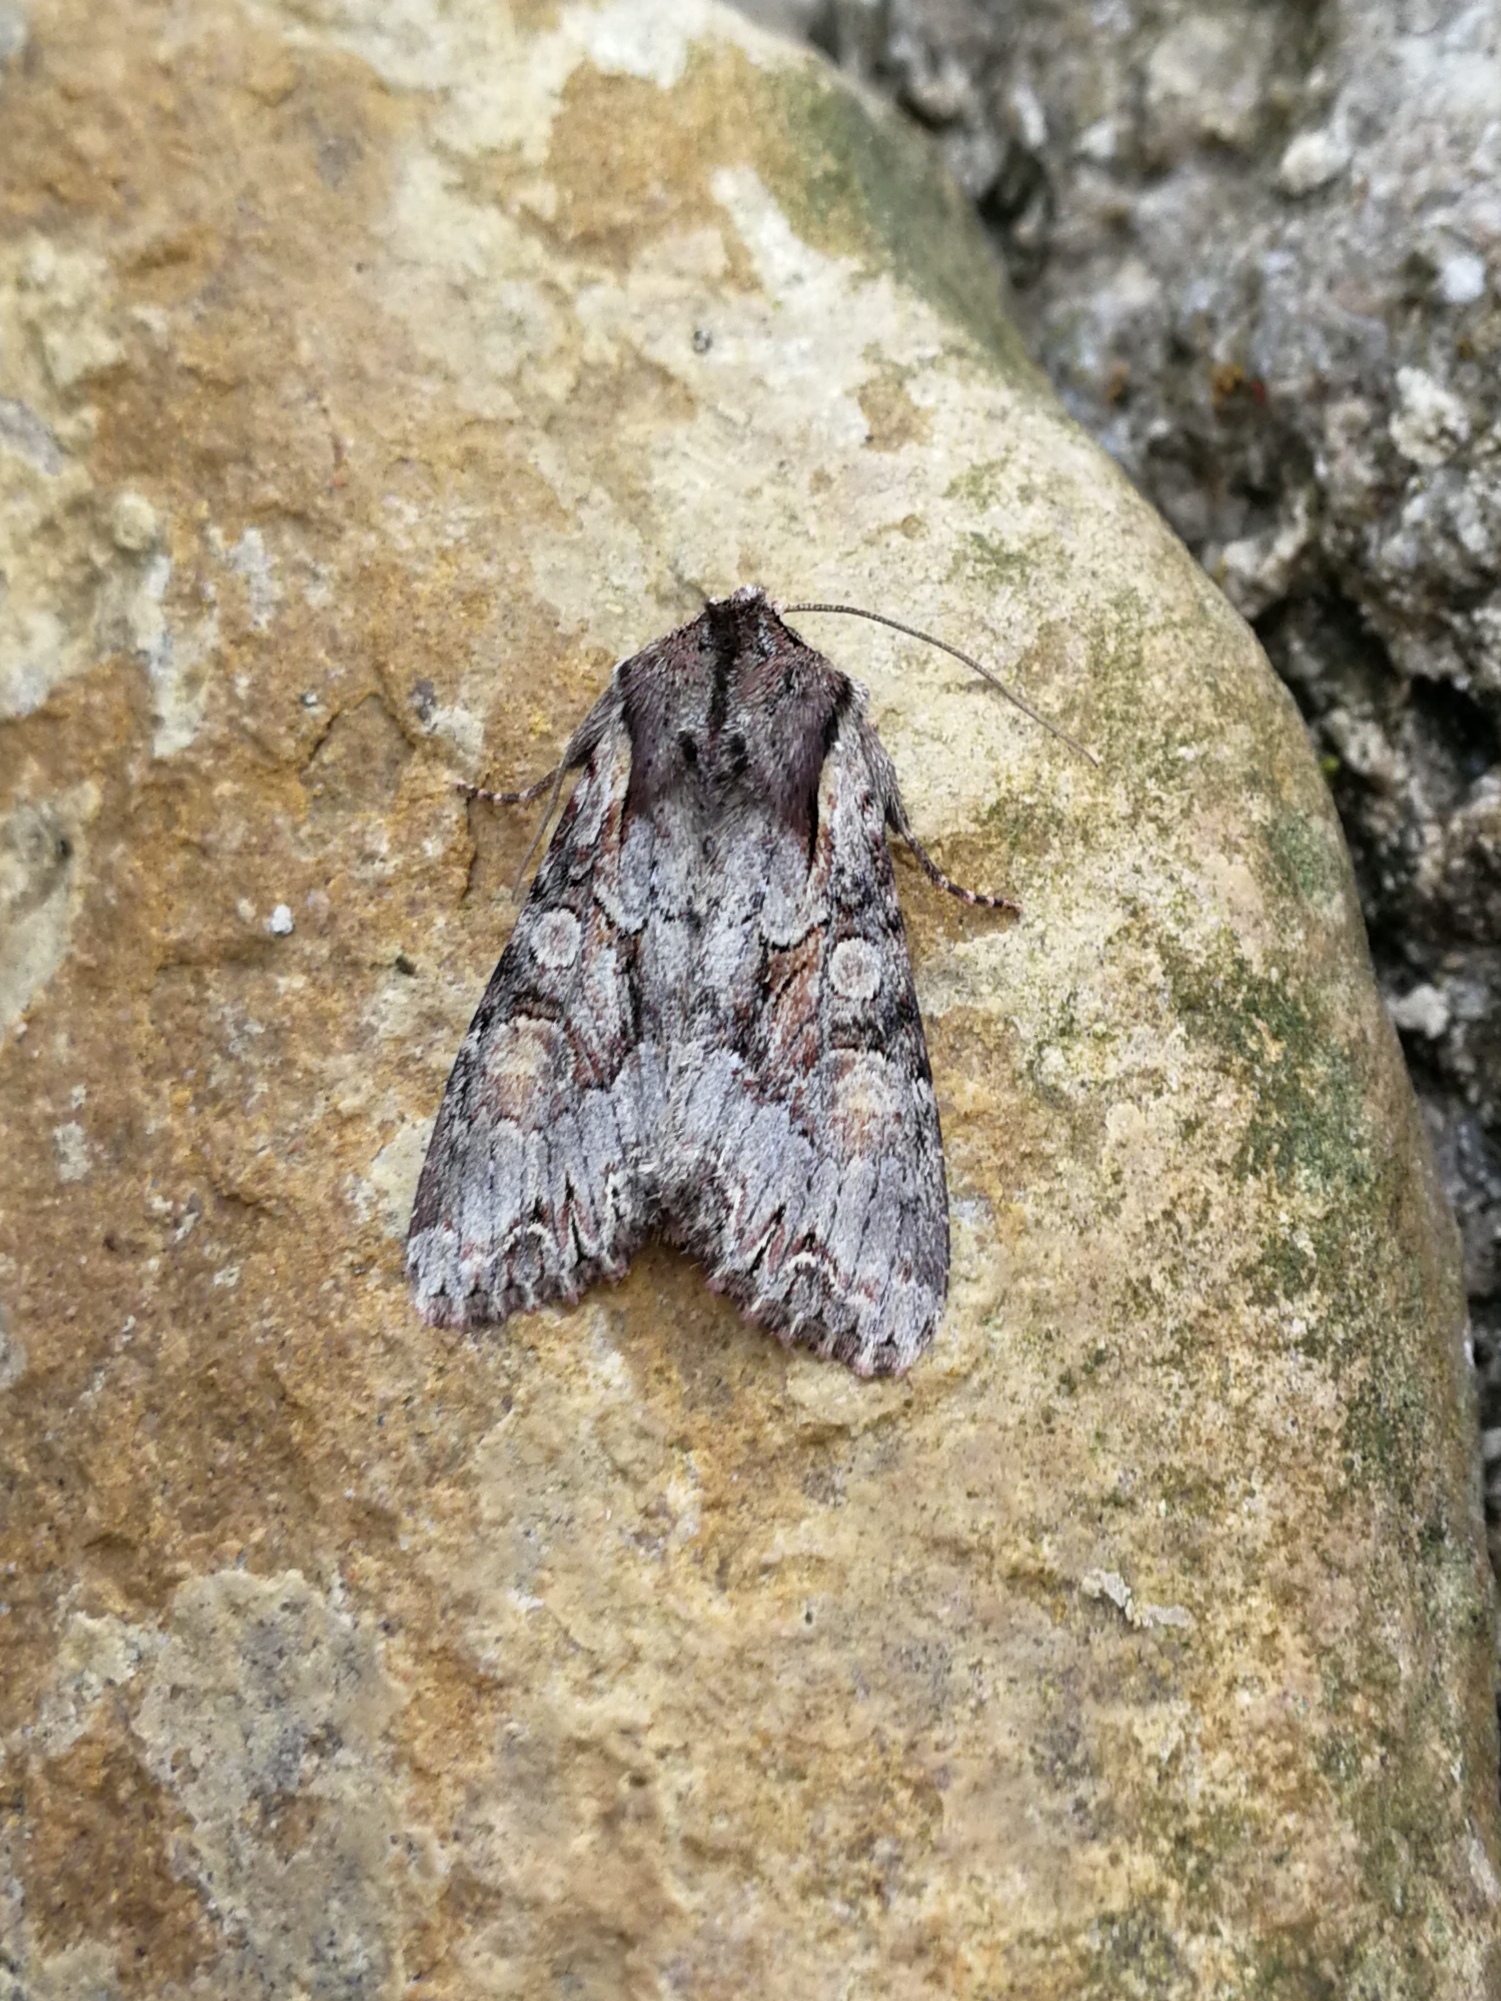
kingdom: Animalia
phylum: Arthropoda
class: Insecta
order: Lepidoptera
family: Noctuidae
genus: Lacanobia
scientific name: Lacanobia w-latinum
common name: Light brocade
